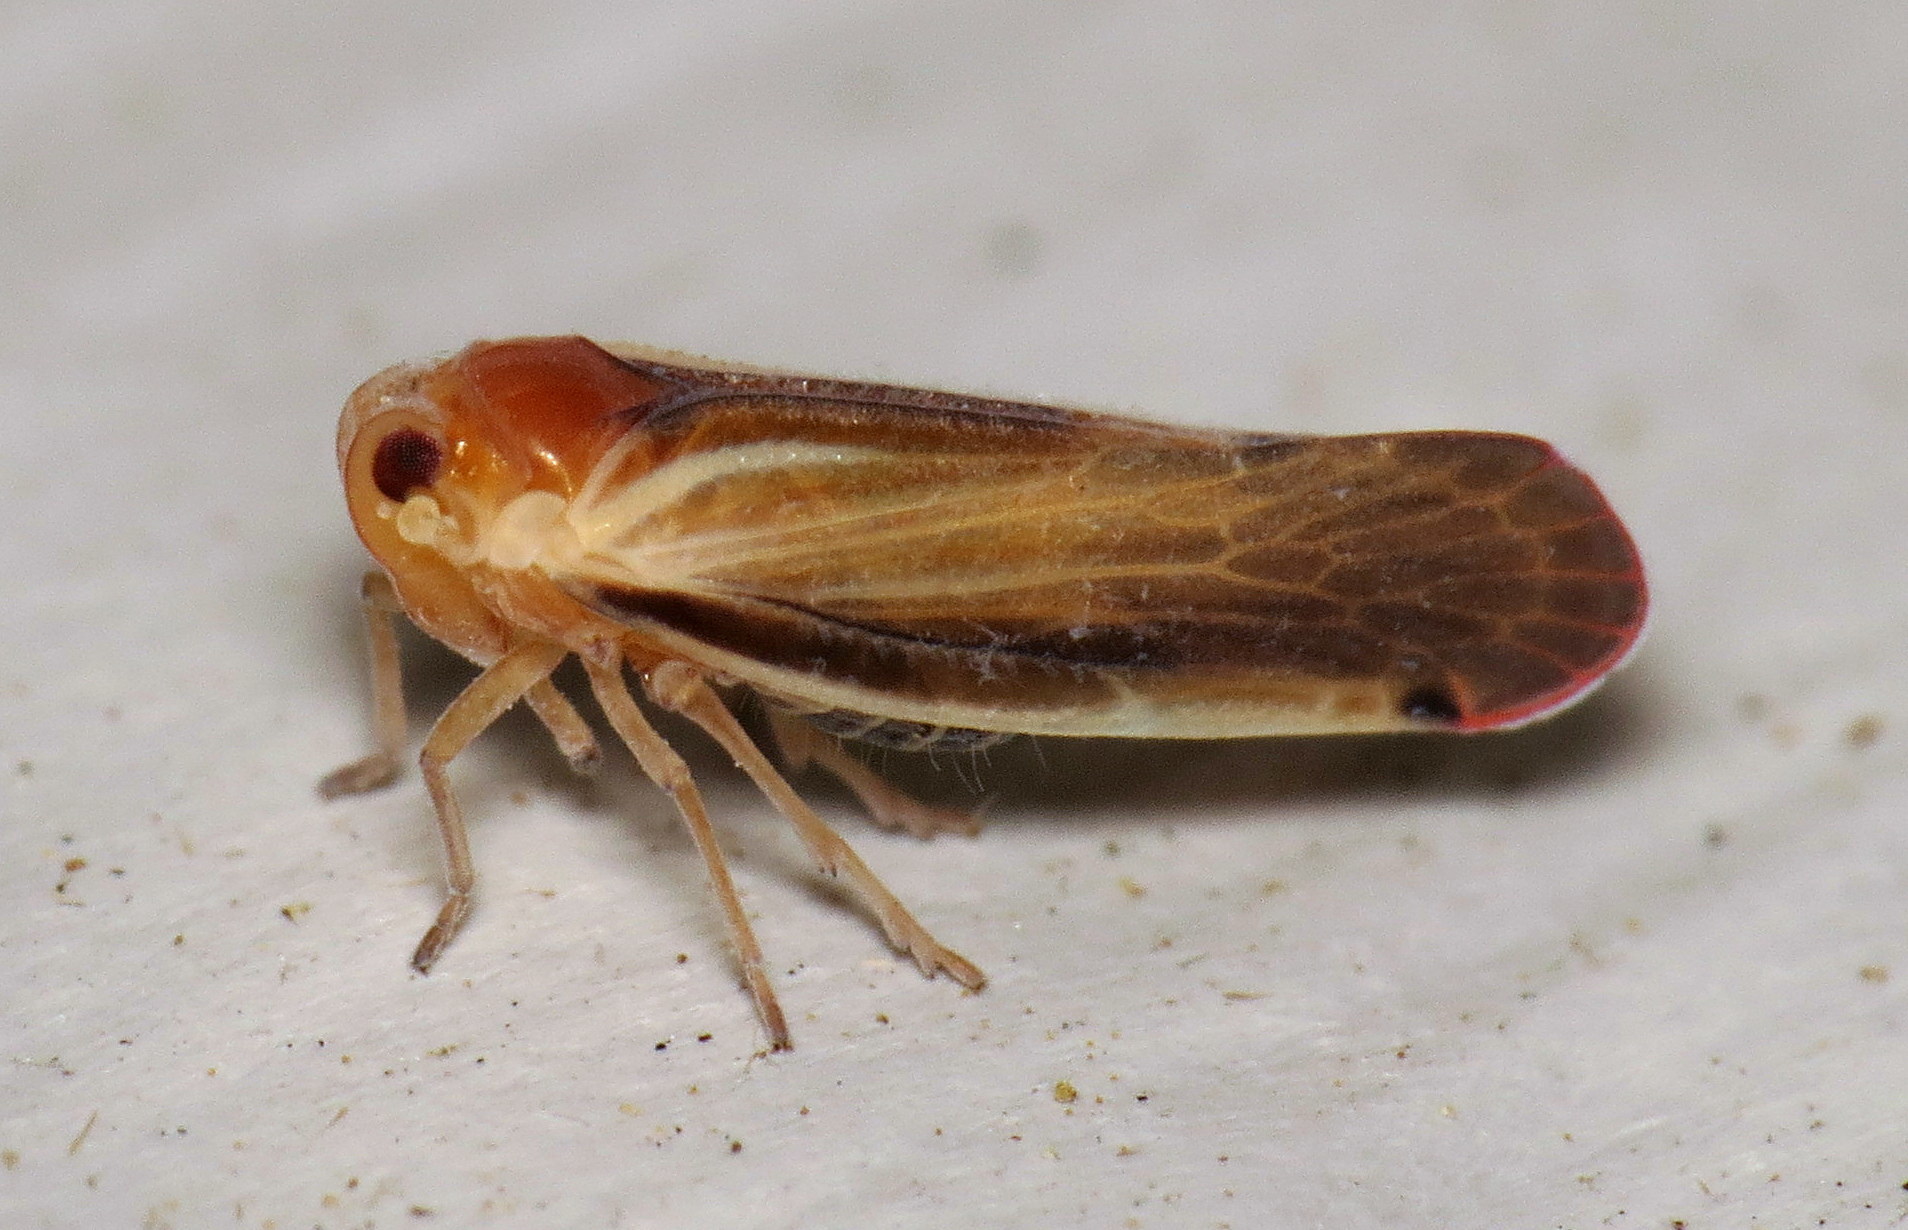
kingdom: Animalia
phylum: Arthropoda
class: Insecta
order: Hemiptera
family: Derbidae
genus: Omolicna
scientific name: Omolicna uhleri
